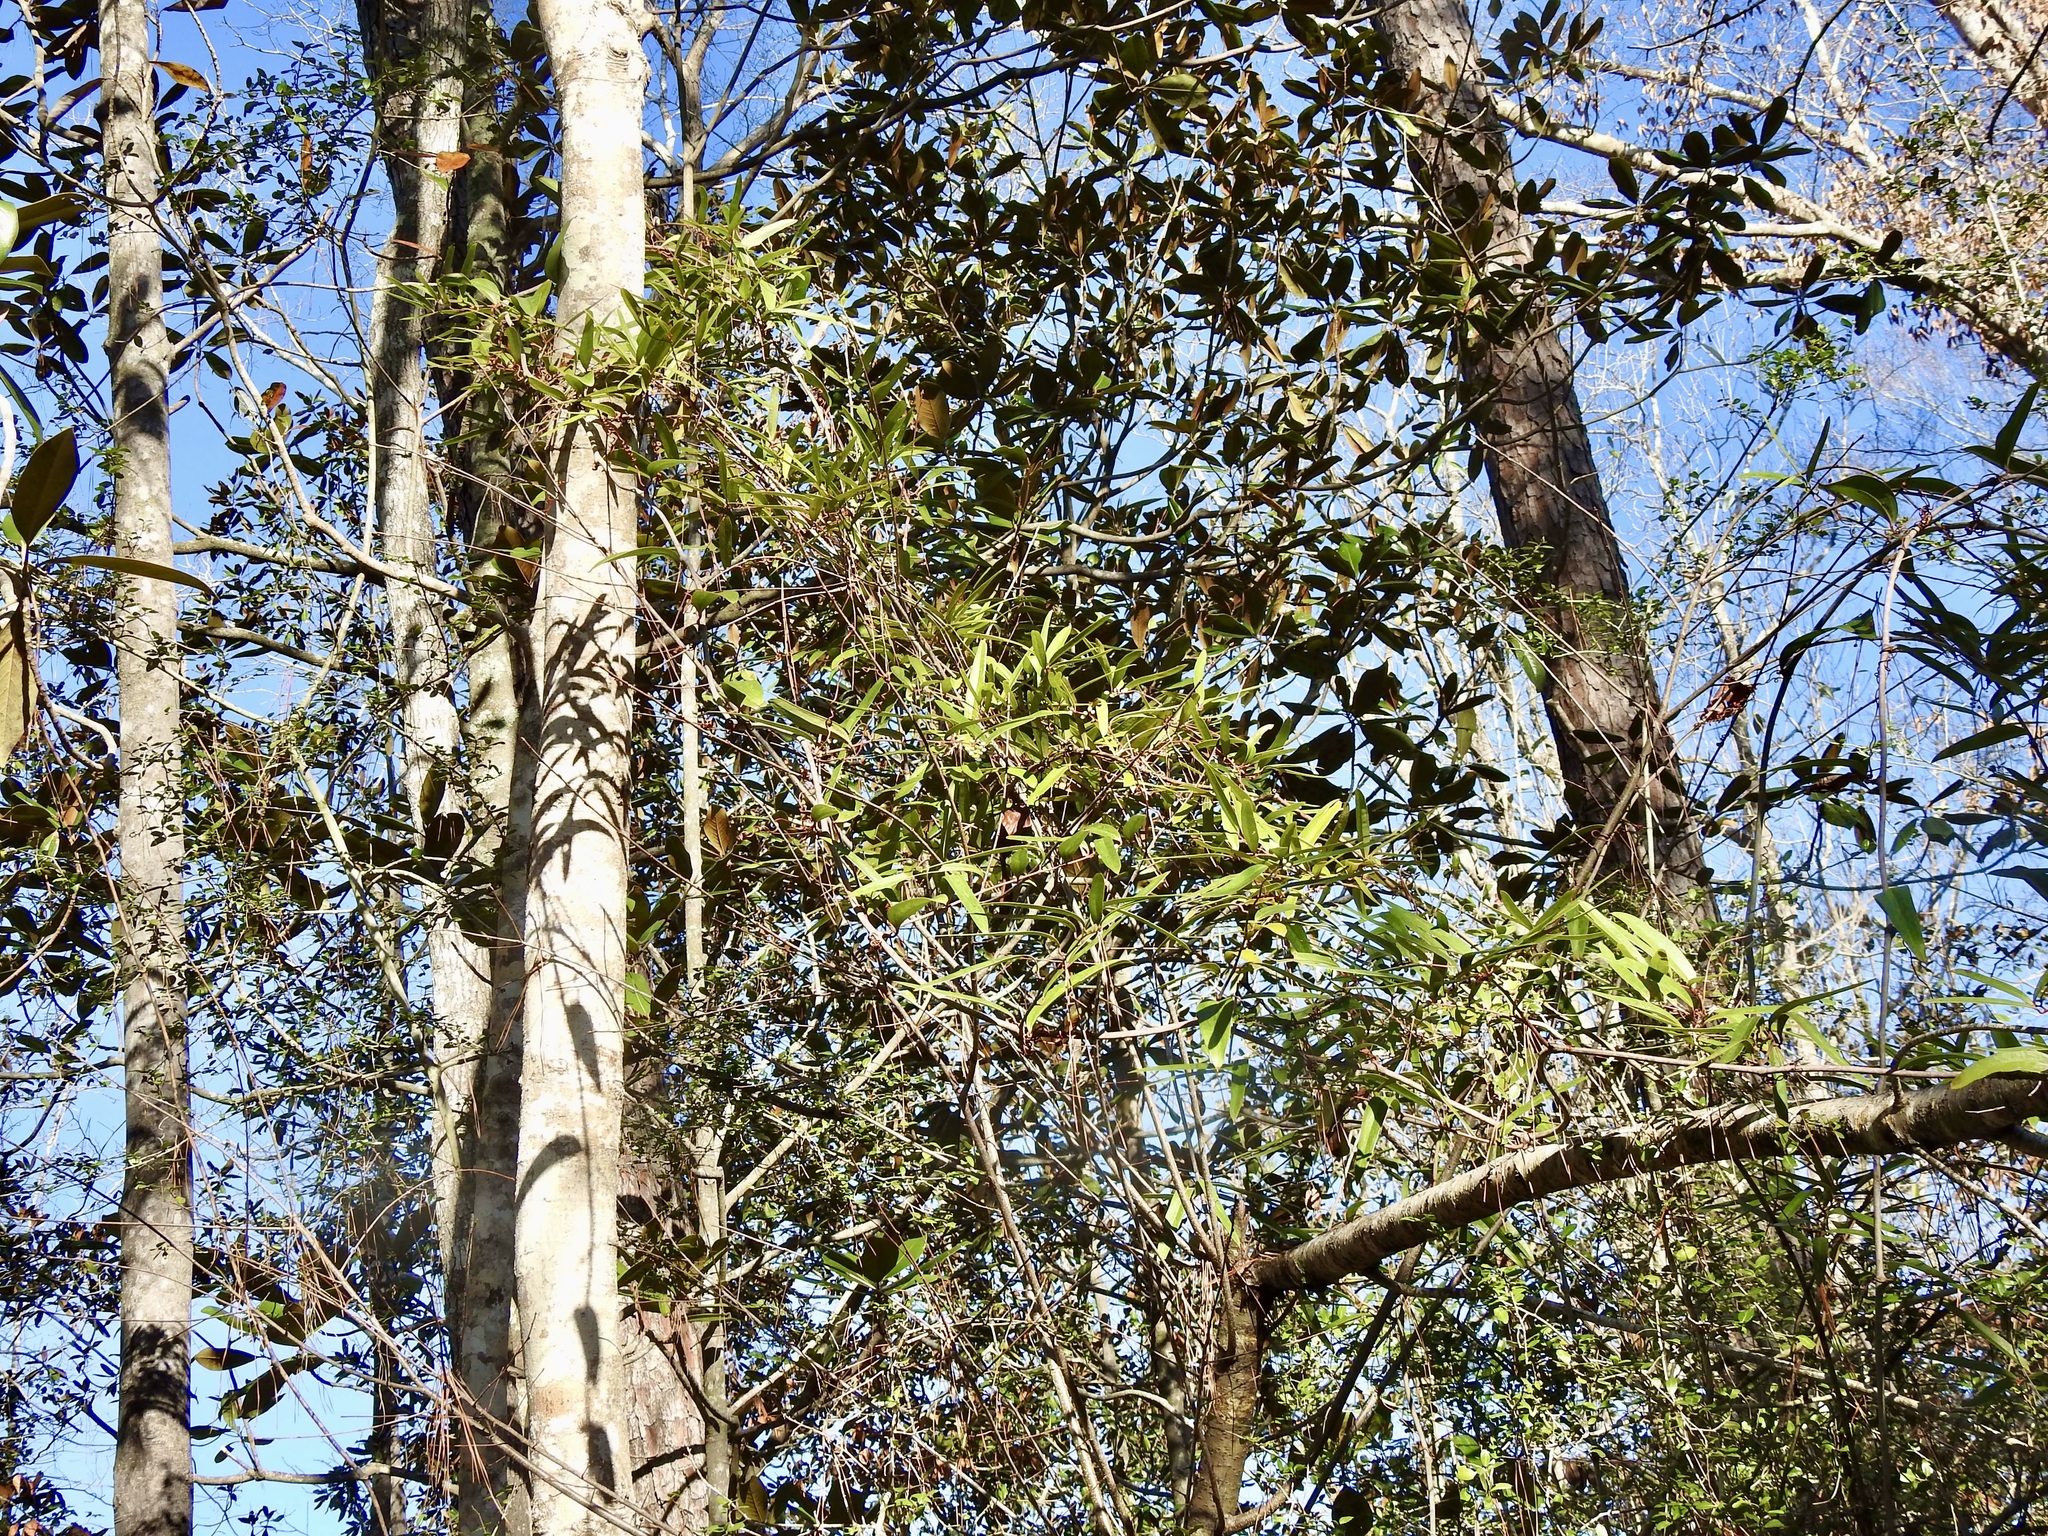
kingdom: Plantae
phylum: Tracheophyta
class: Liliopsida
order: Liliales
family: Smilacaceae
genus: Smilax
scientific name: Smilax laurifolia
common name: Bamboovine
